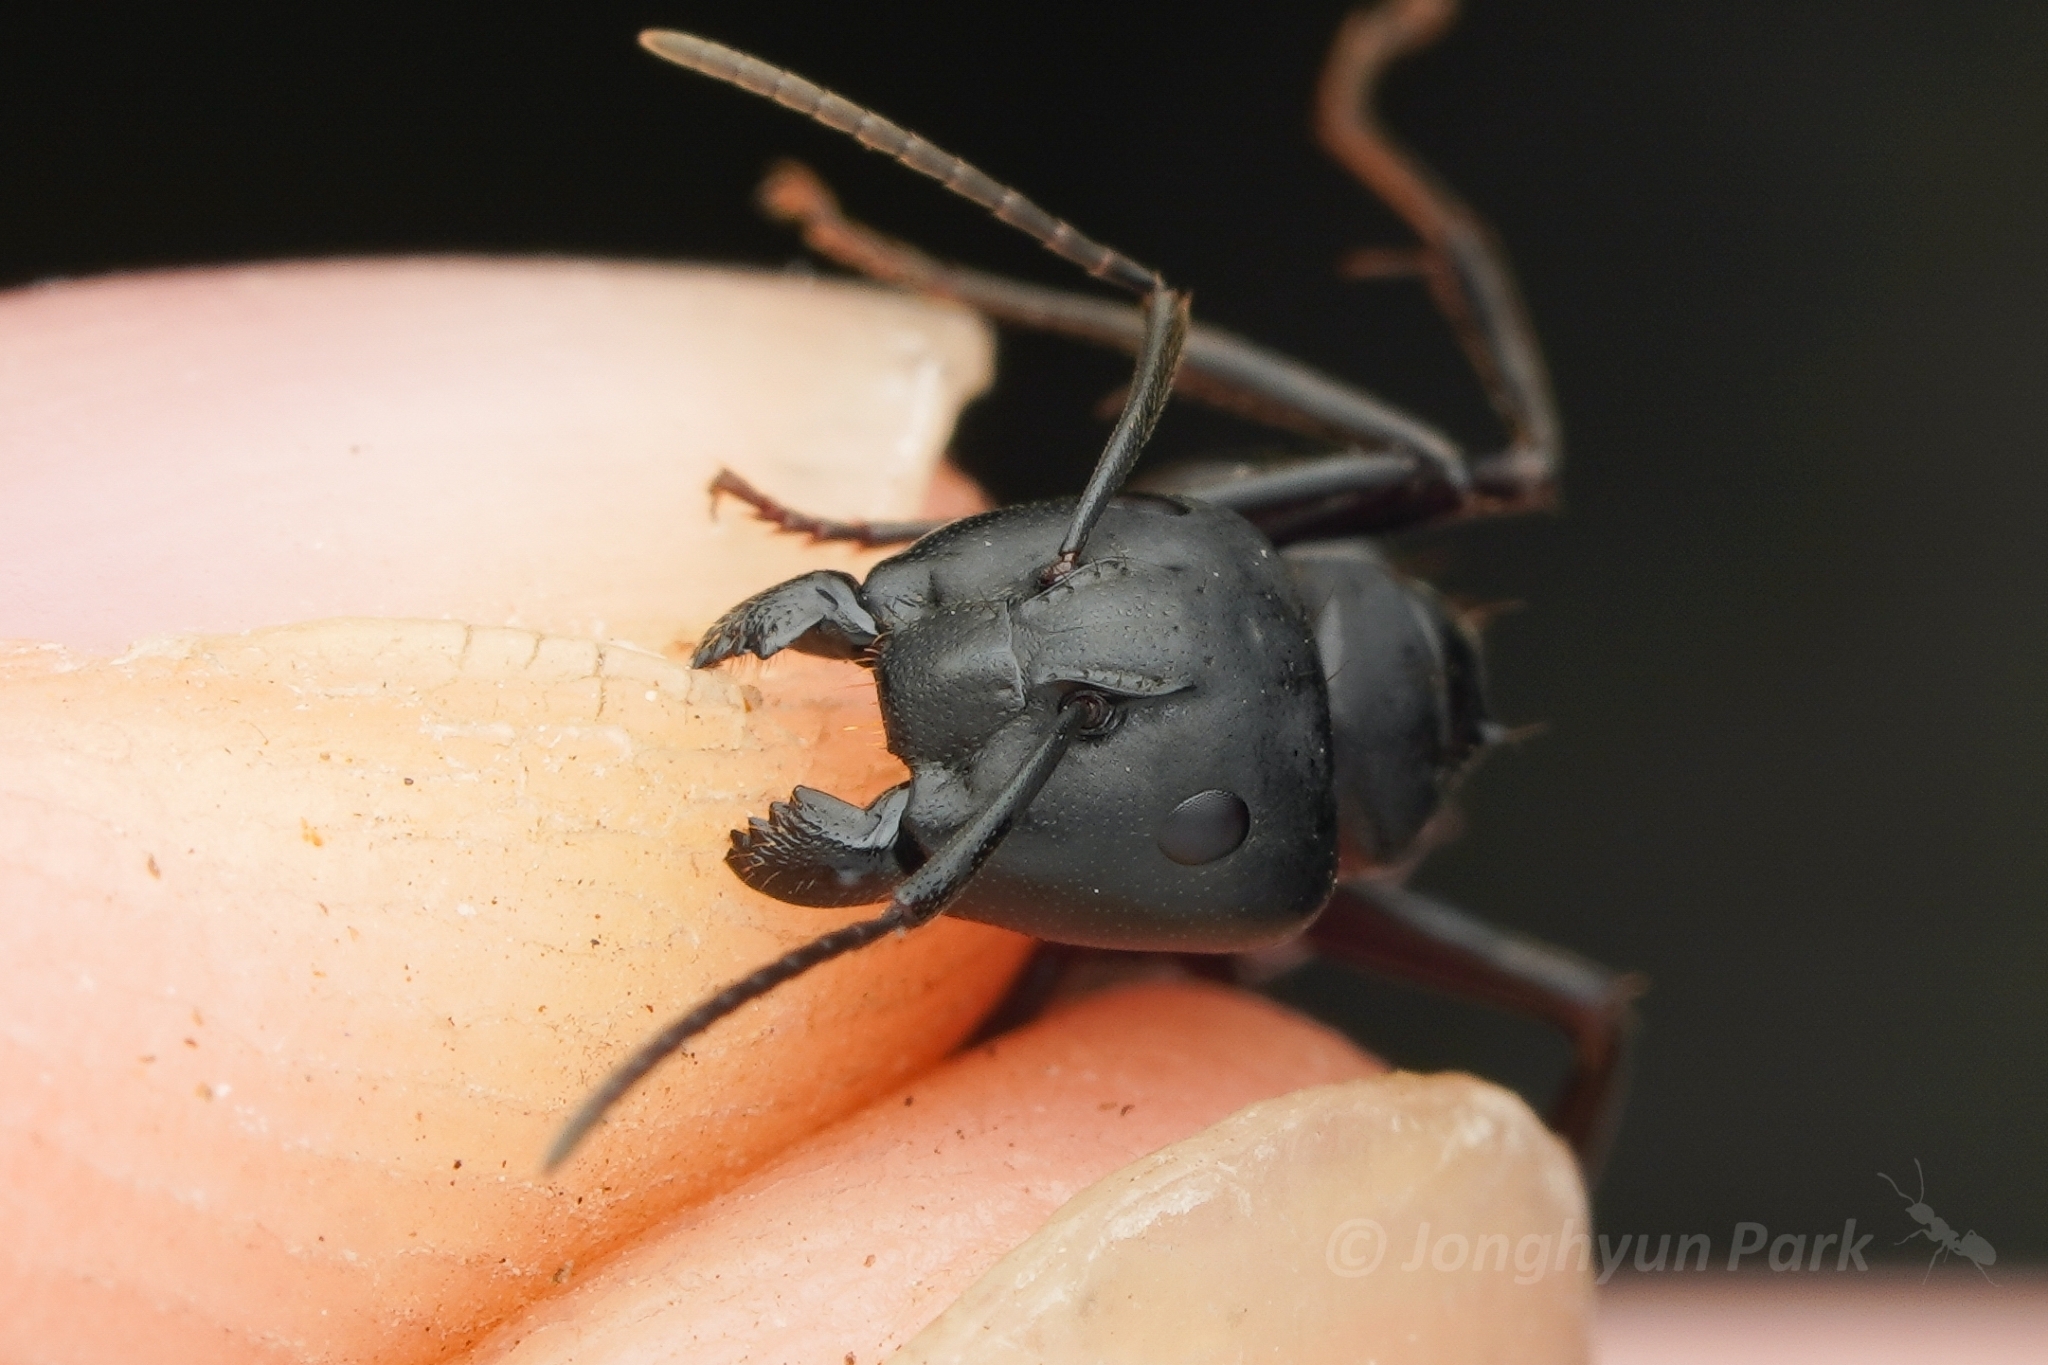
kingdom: Animalia
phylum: Arthropoda
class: Insecta
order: Hymenoptera
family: Formicidae
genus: Camponotus
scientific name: Camponotus atrox
